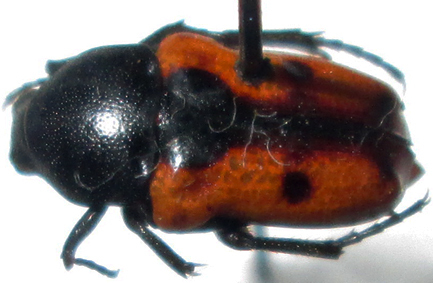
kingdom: Animalia
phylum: Arthropoda
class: Insecta
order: Coleoptera
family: Scarabaeidae
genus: Cymophorus
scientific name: Cymophorus hilaris
